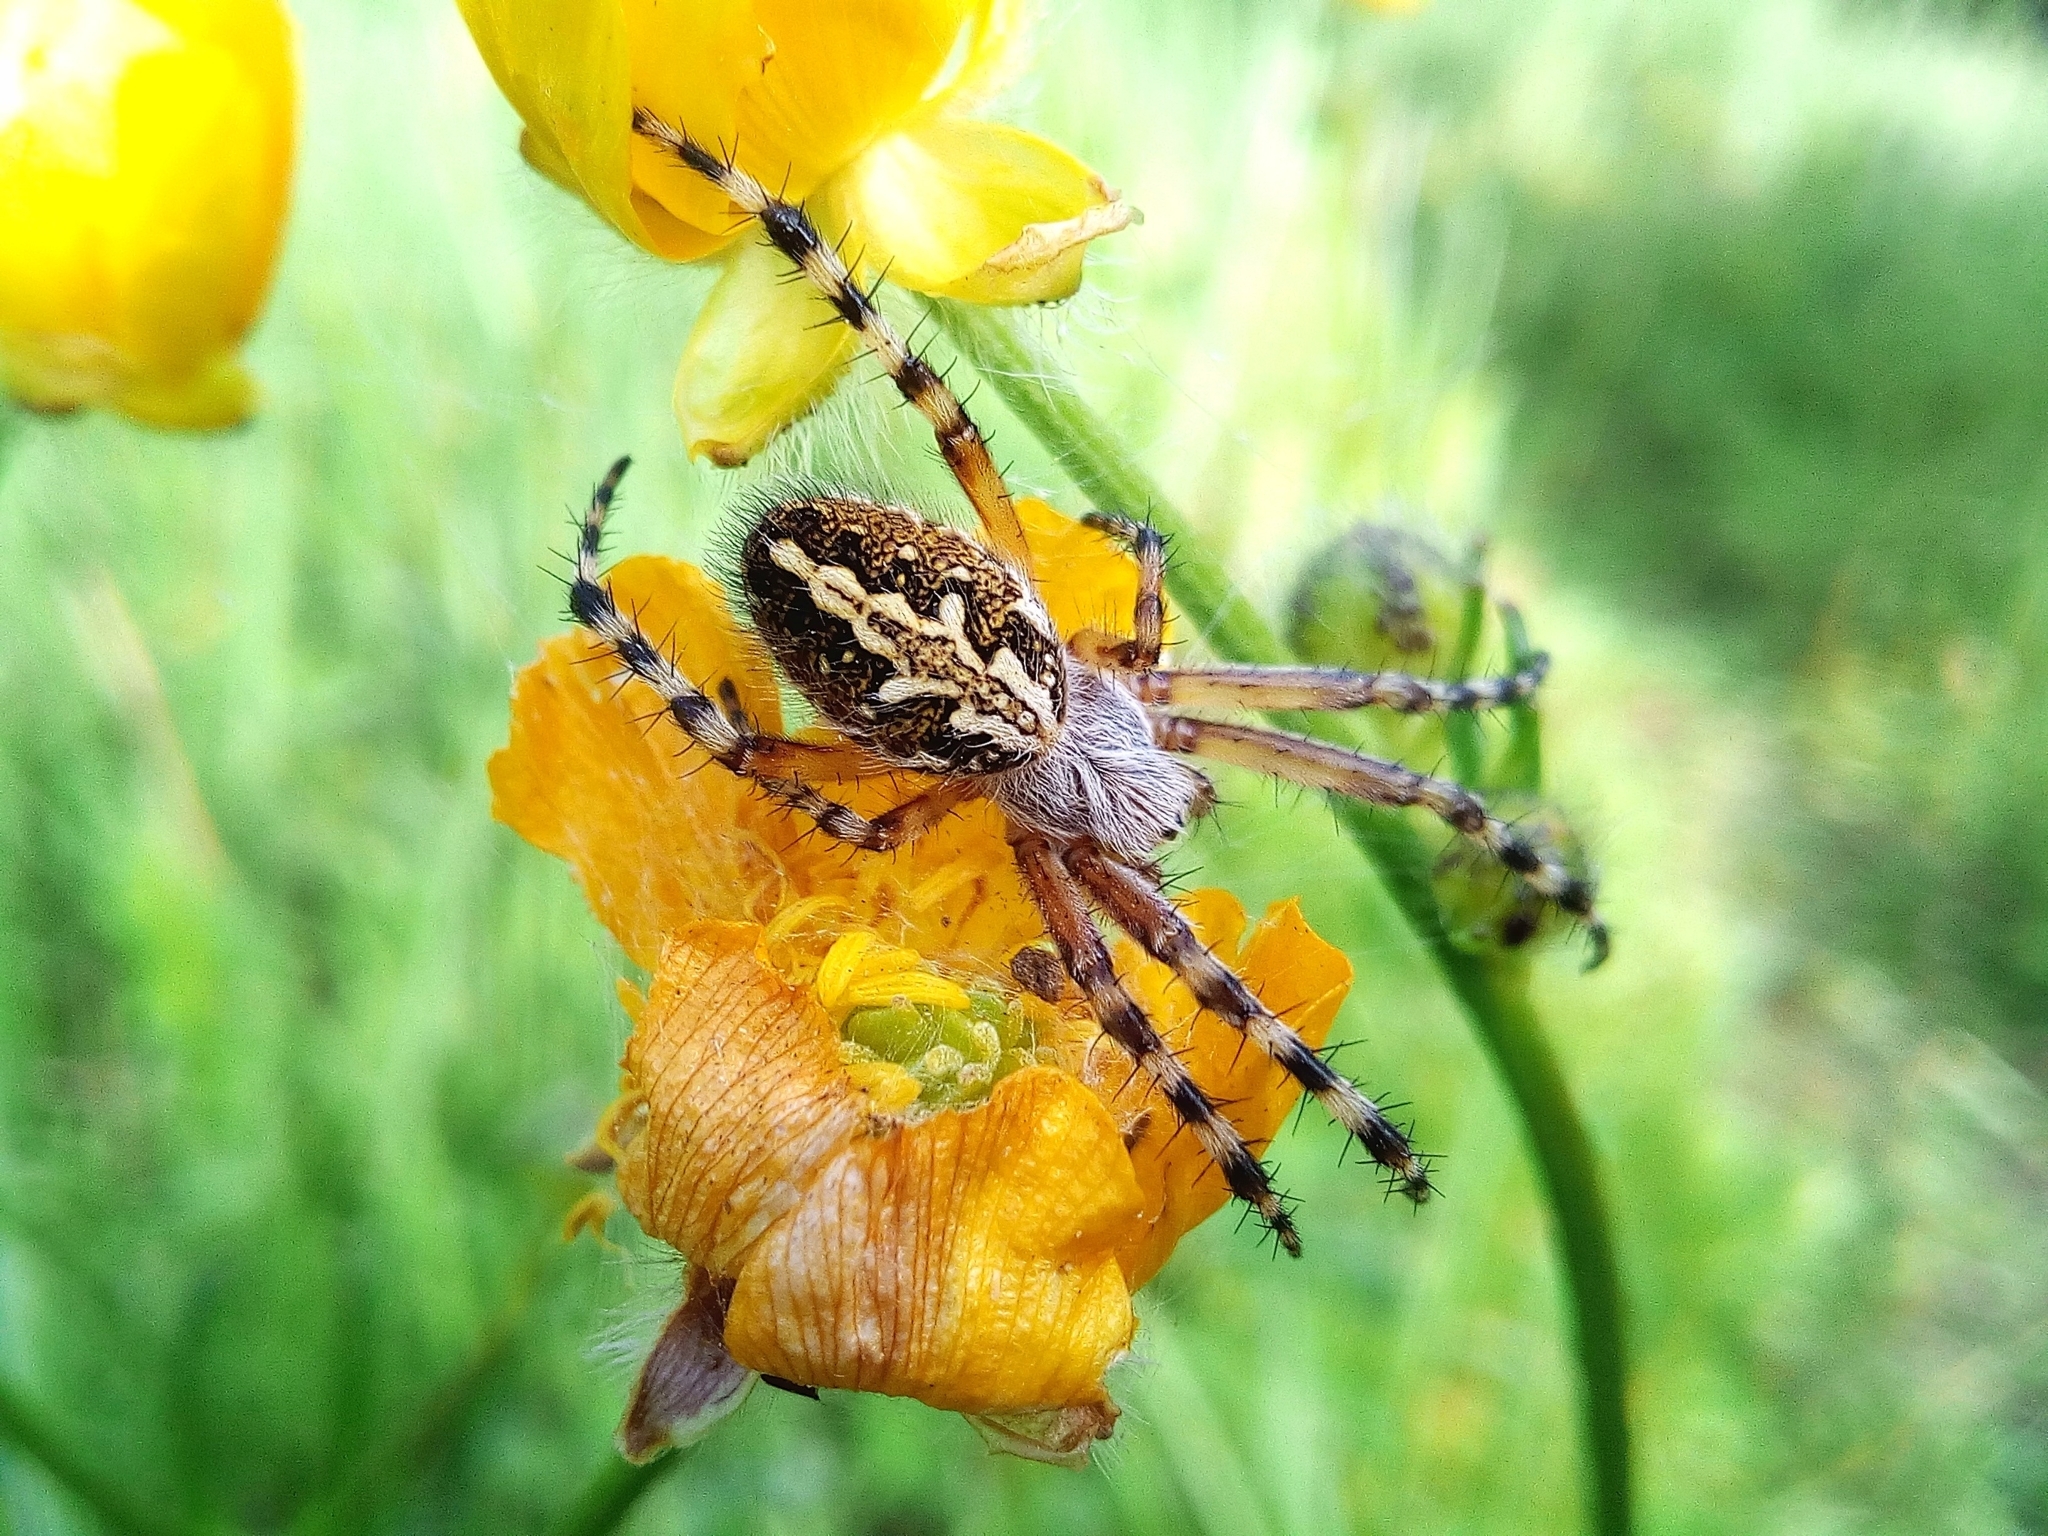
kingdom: Animalia
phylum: Arthropoda
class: Arachnida
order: Araneae
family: Araneidae
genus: Aculepeira
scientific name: Aculepeira ceropegia
